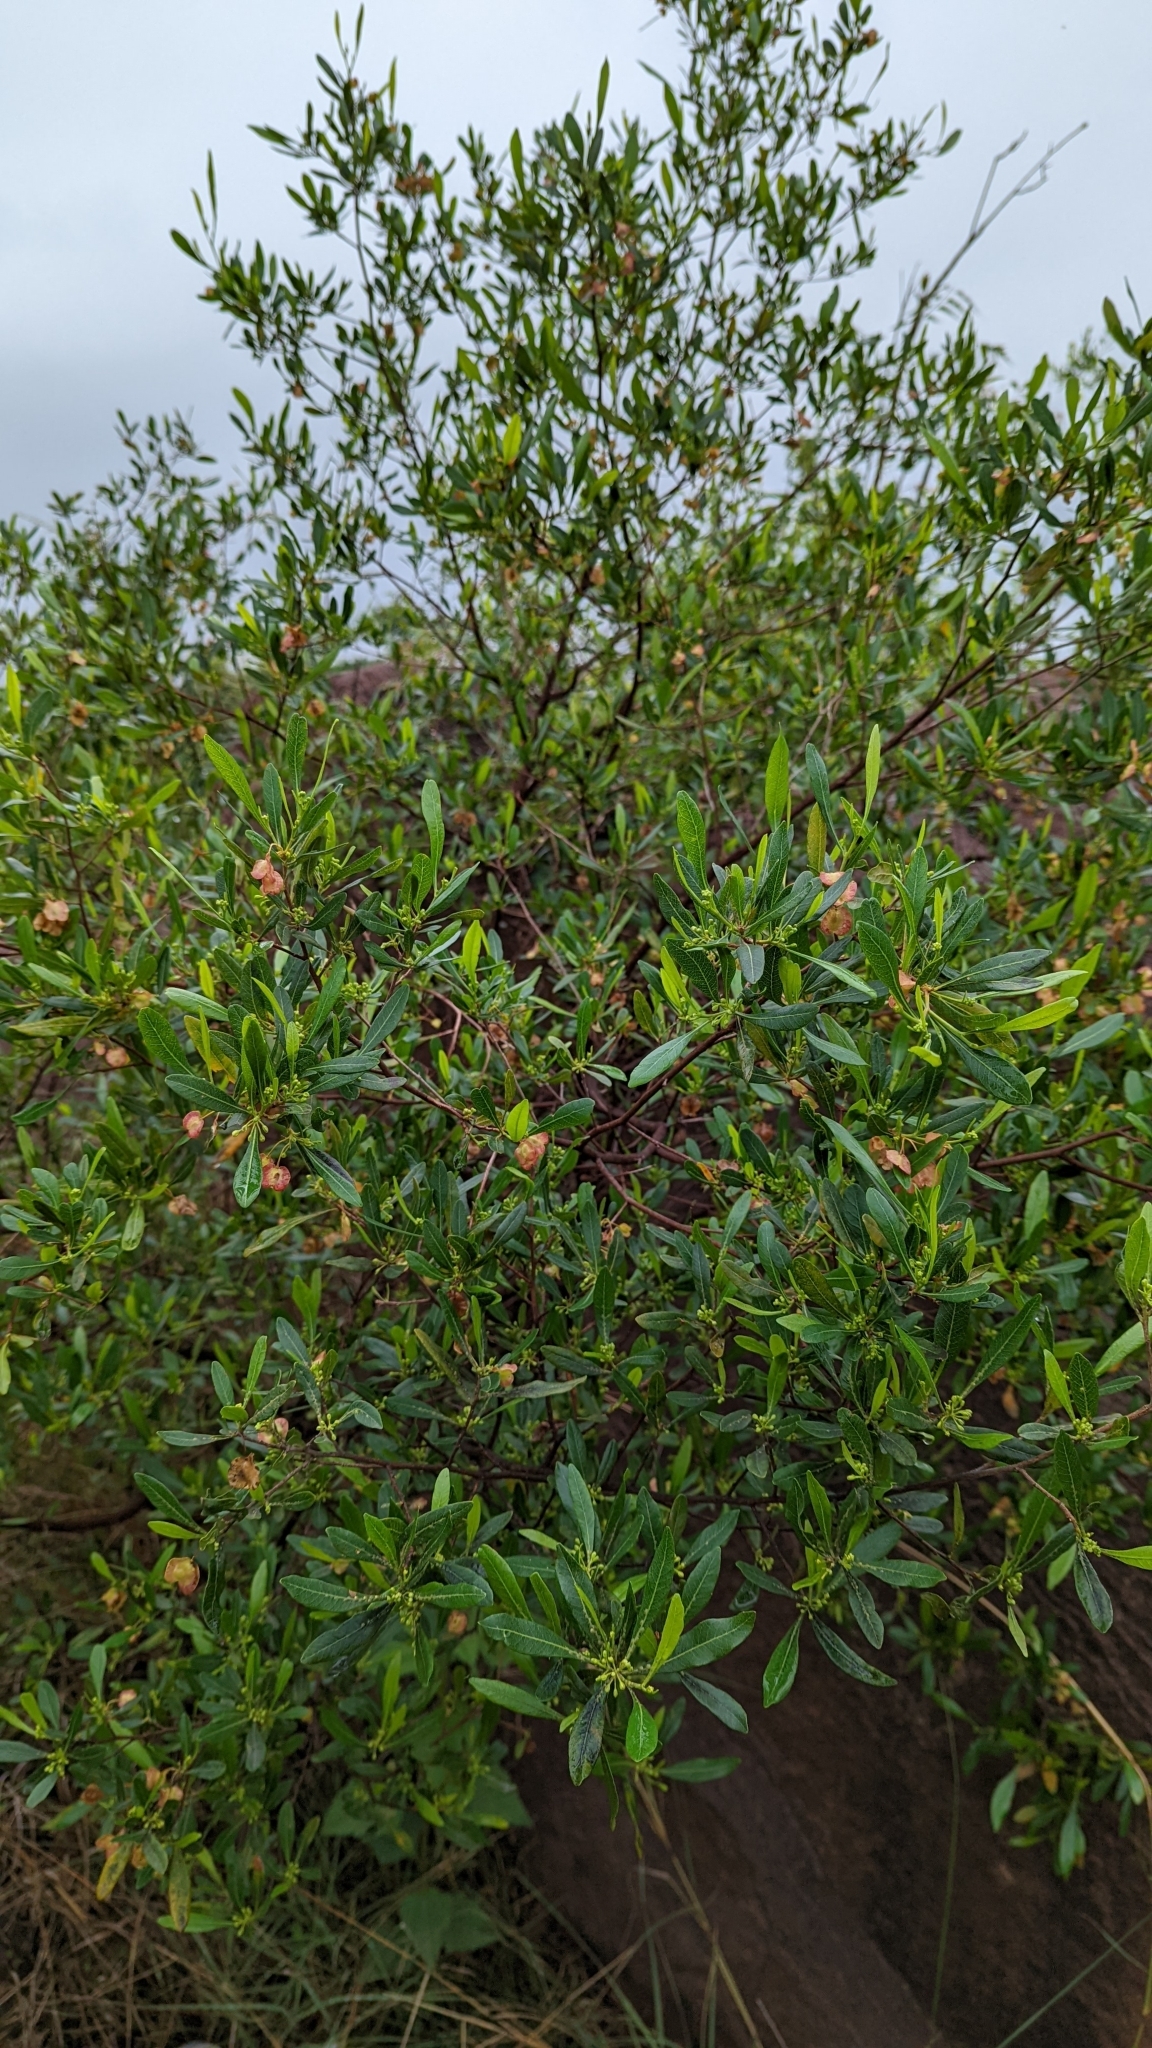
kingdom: Plantae
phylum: Tracheophyta
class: Magnoliopsida
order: Sapindales
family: Sapindaceae
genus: Dodonaea
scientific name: Dodonaea viscosa
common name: Hopbush
